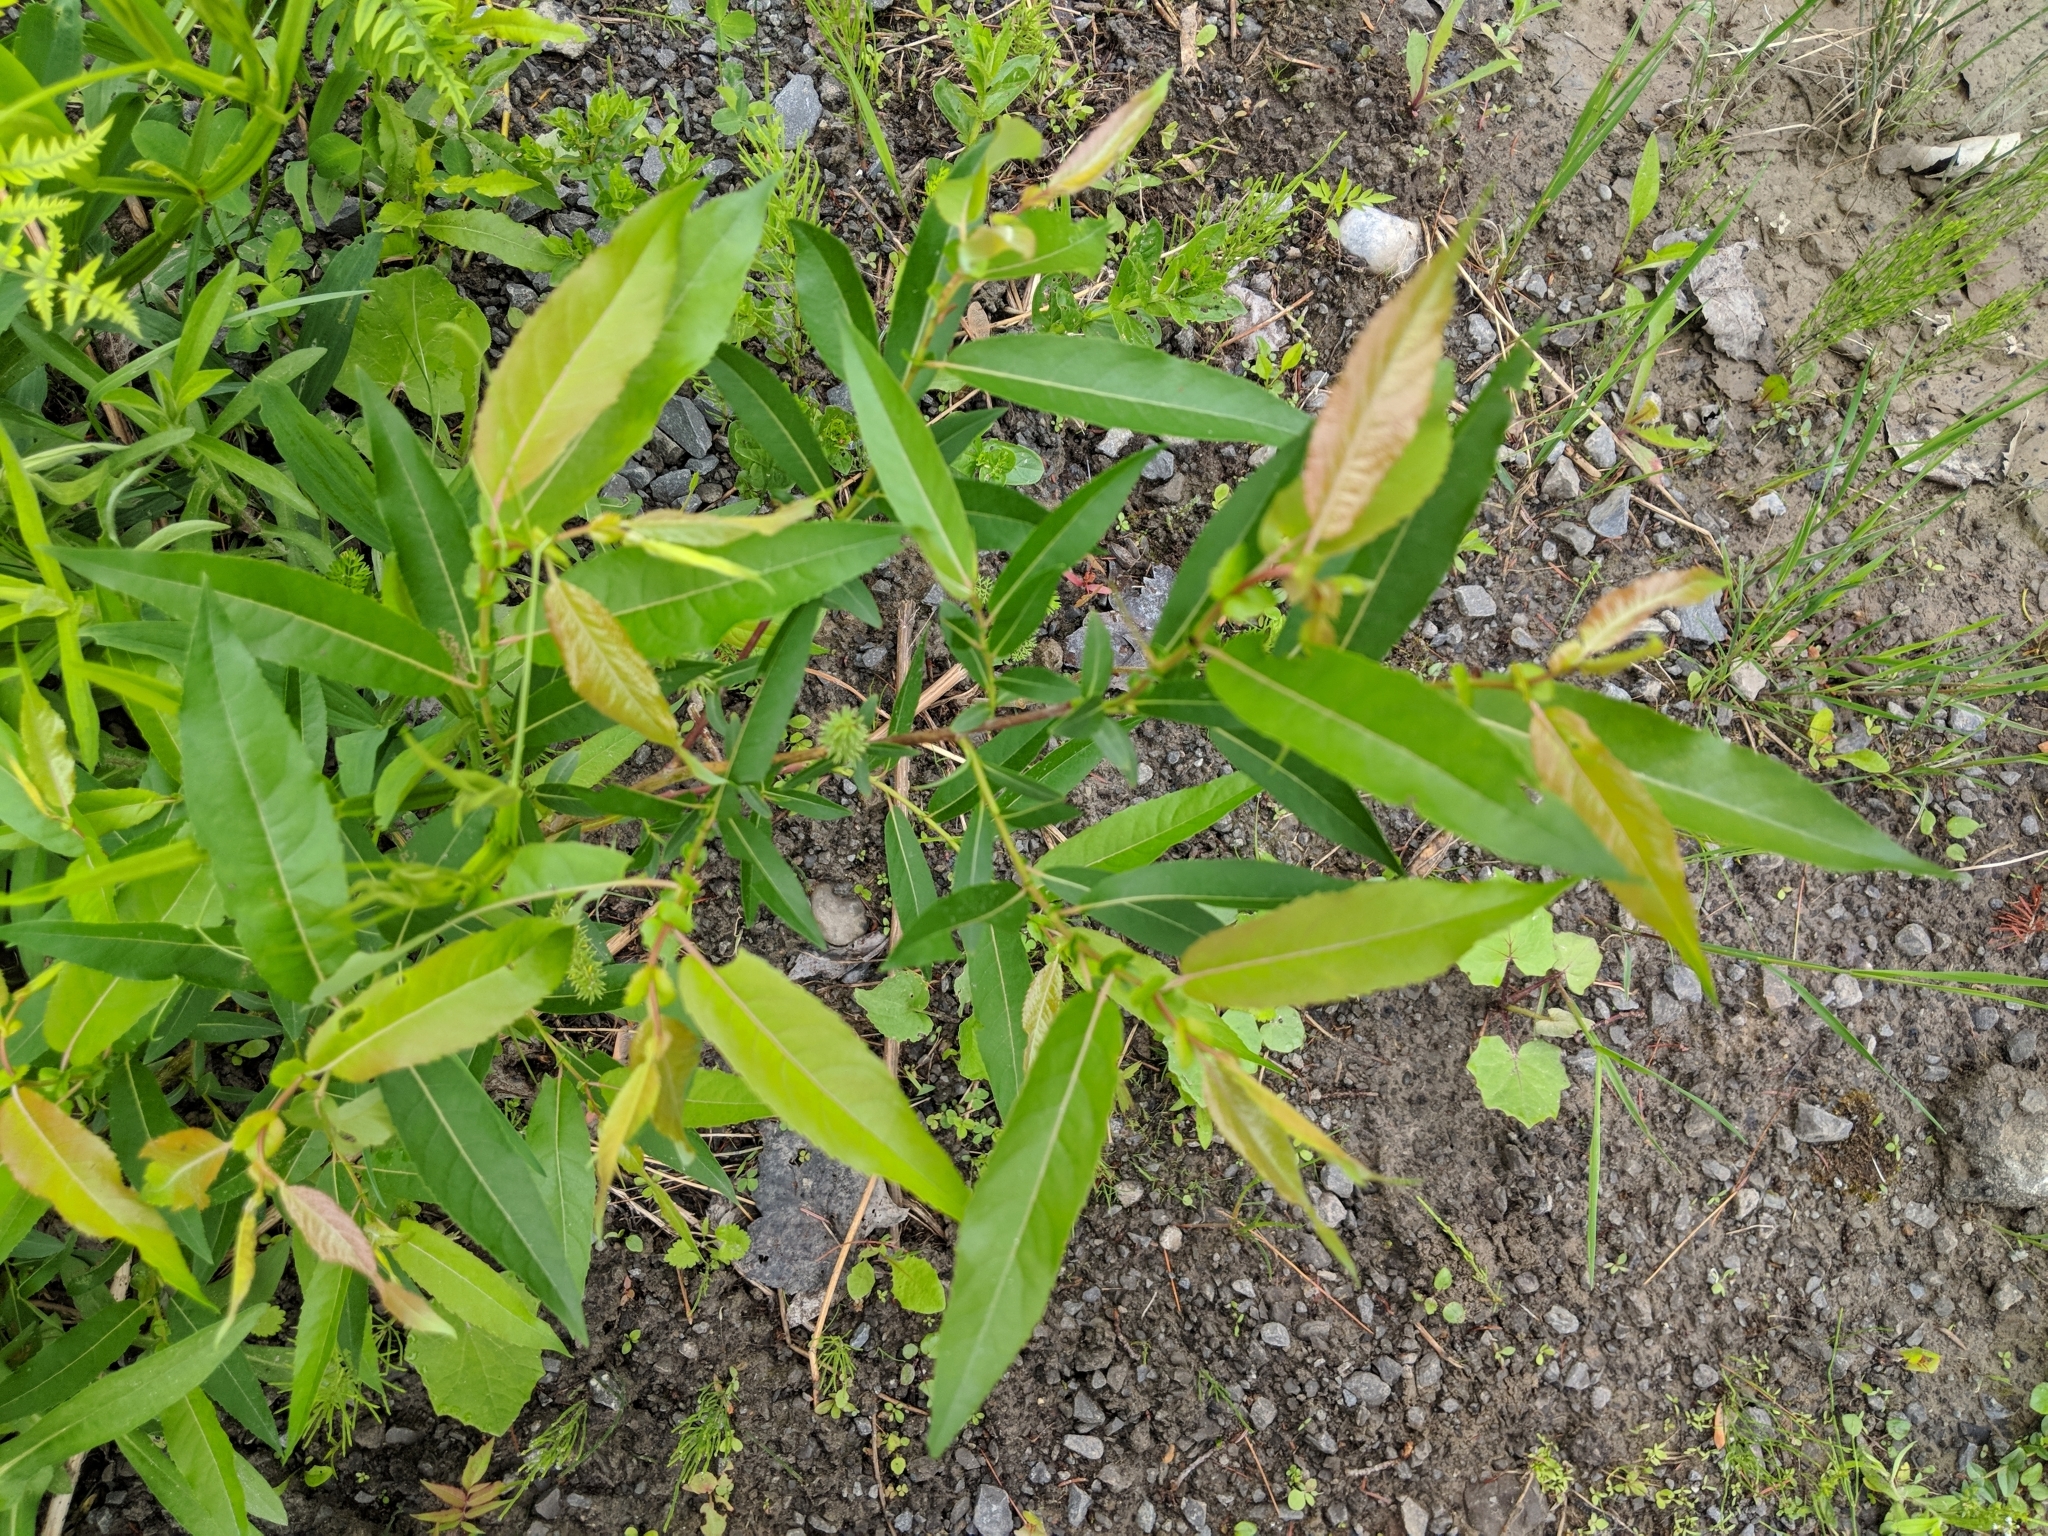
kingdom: Plantae
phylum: Tracheophyta
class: Magnoliopsida
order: Malpighiales
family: Salicaceae
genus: Salix
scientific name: Salix eriocephala
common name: Heart-leaved willow
